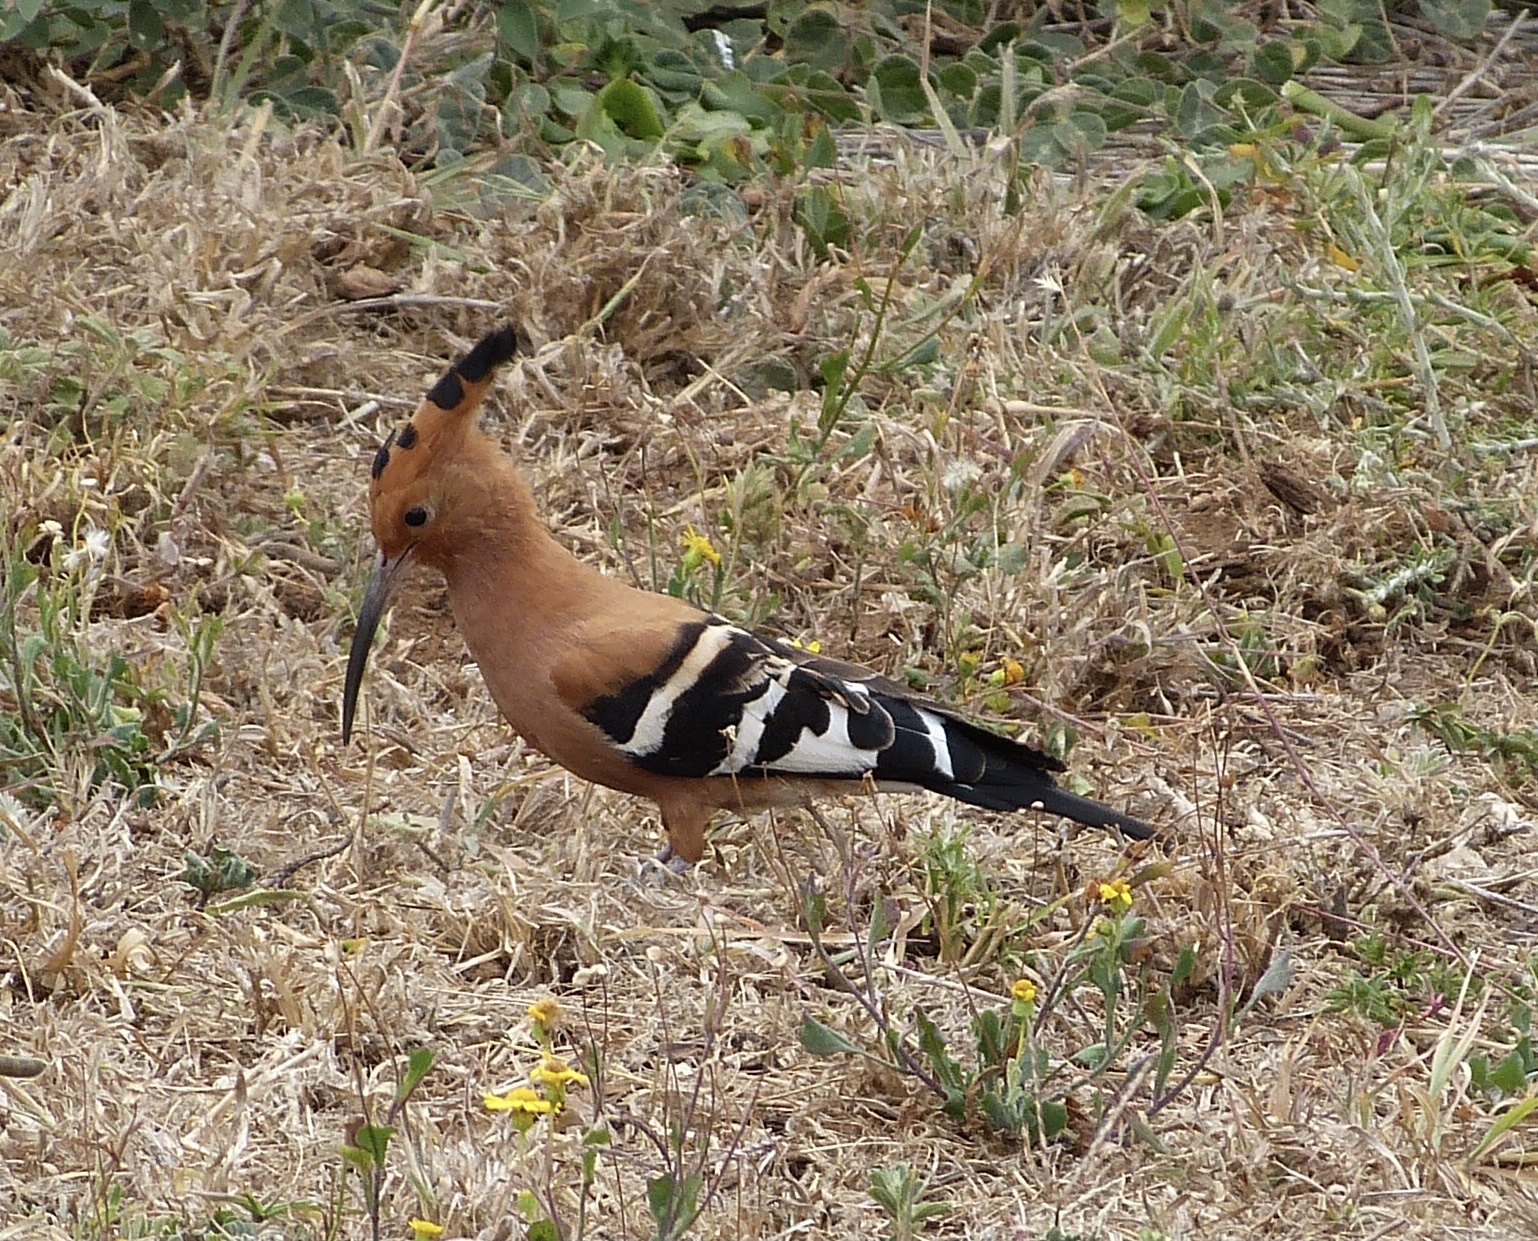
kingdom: Animalia
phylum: Chordata
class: Aves
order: Bucerotiformes
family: Upupidae
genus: Upupa
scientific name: Upupa africana
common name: African hoopoe
